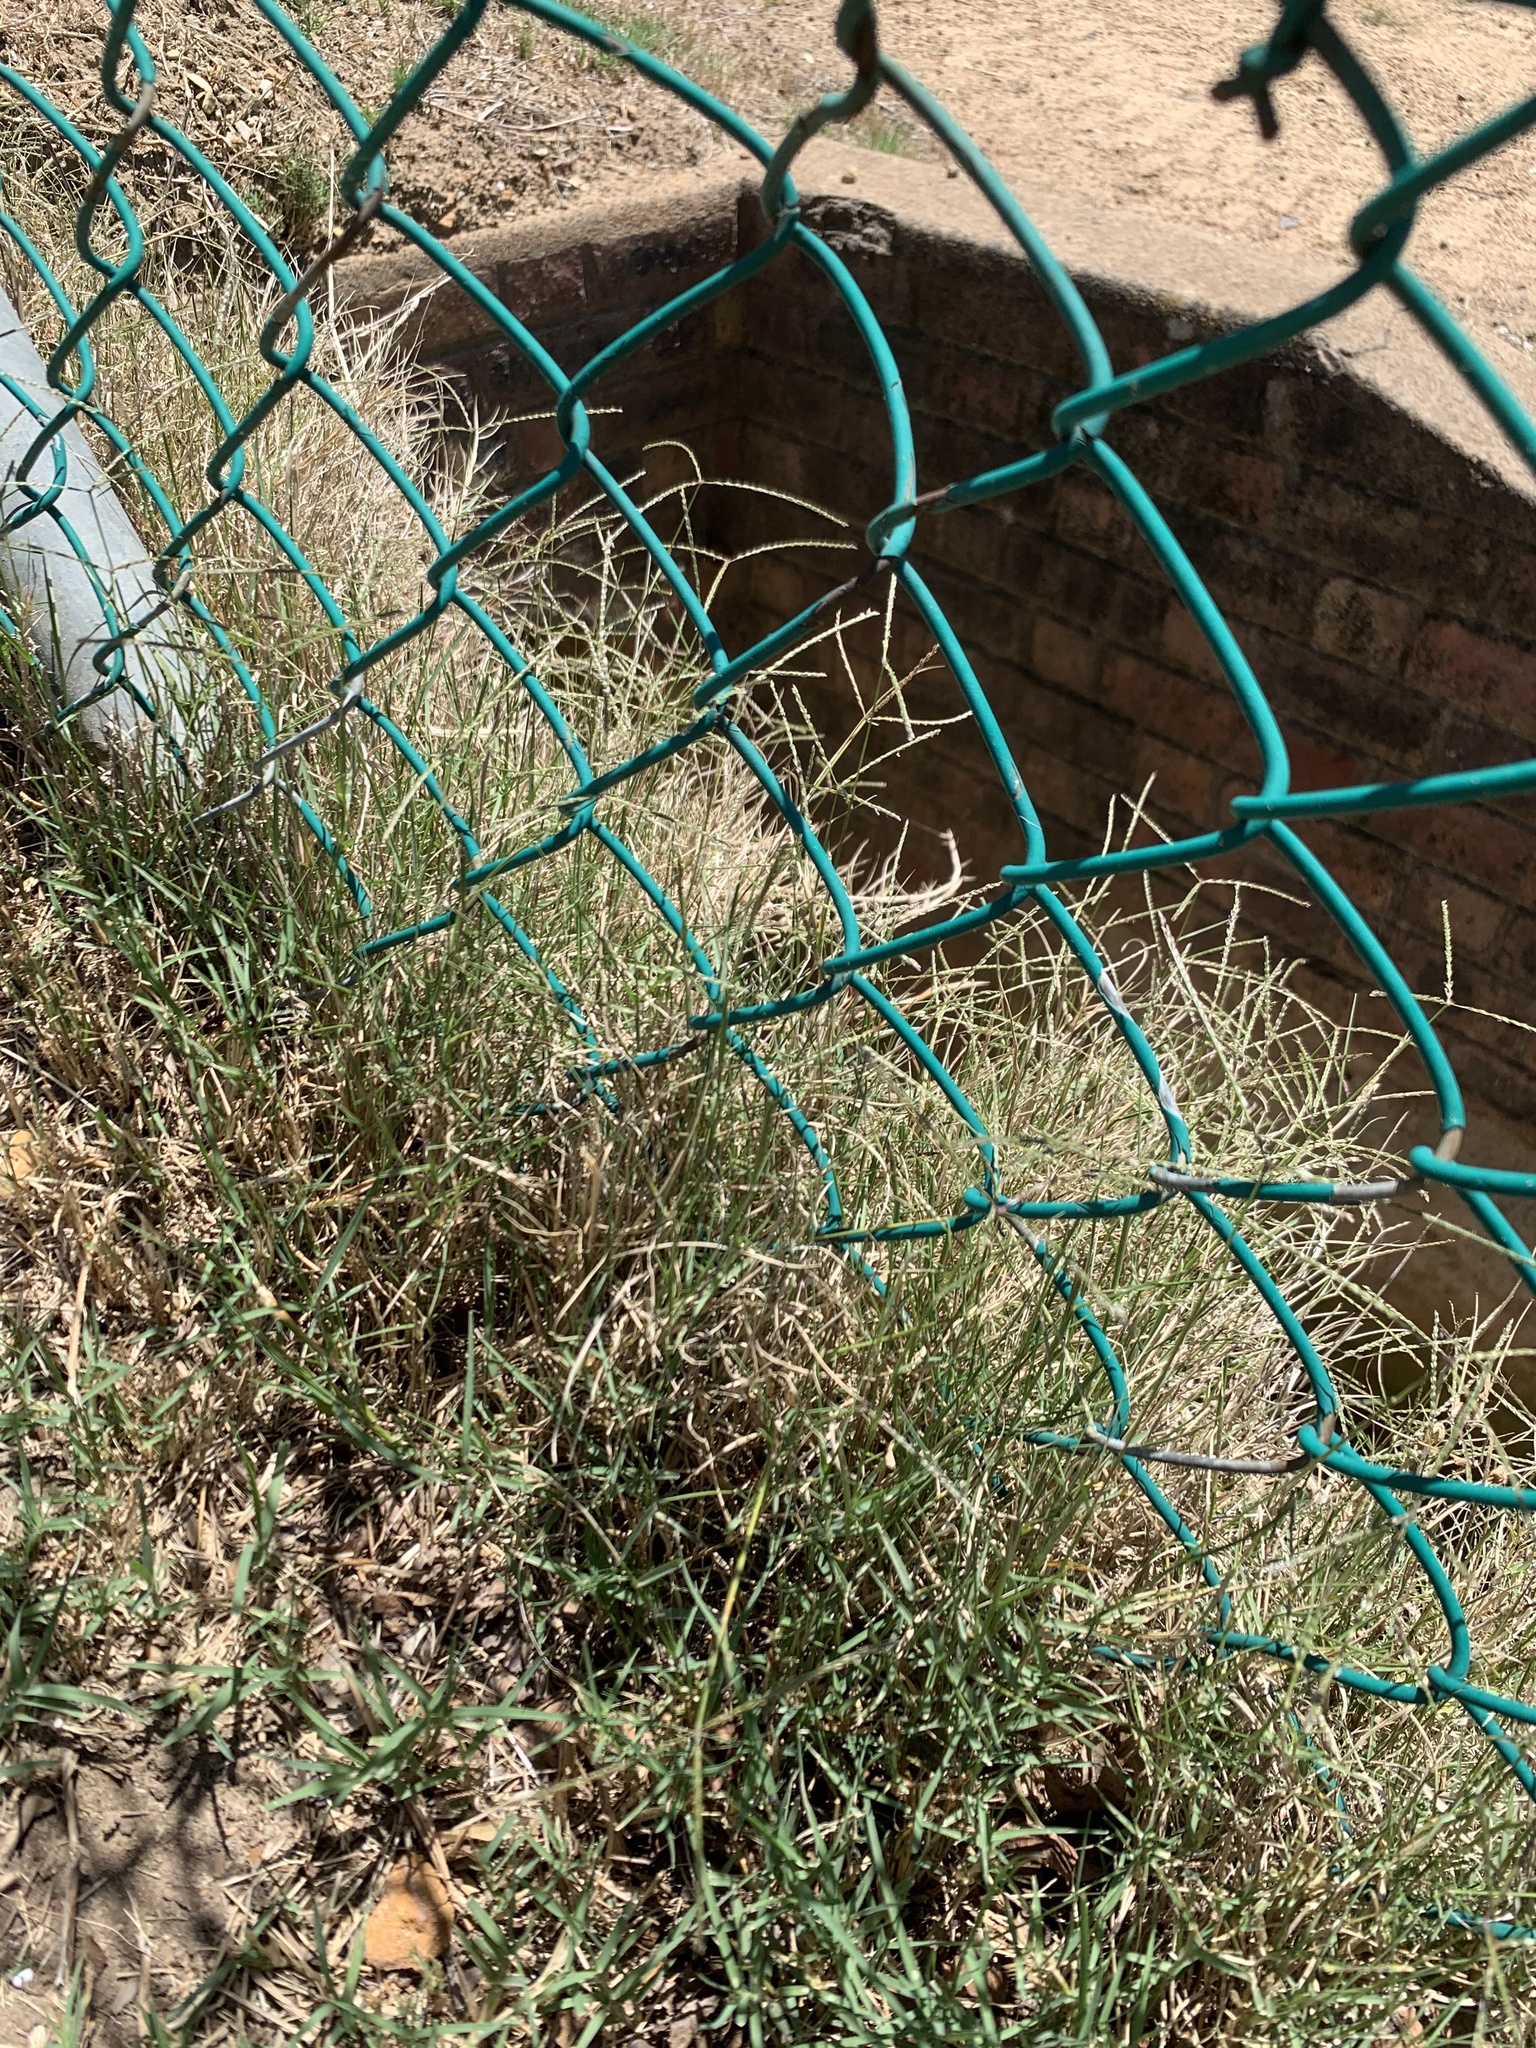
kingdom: Plantae
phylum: Tracheophyta
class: Liliopsida
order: Poales
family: Poaceae
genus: Cynodon
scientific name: Cynodon dactylon
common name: Bermuda grass
